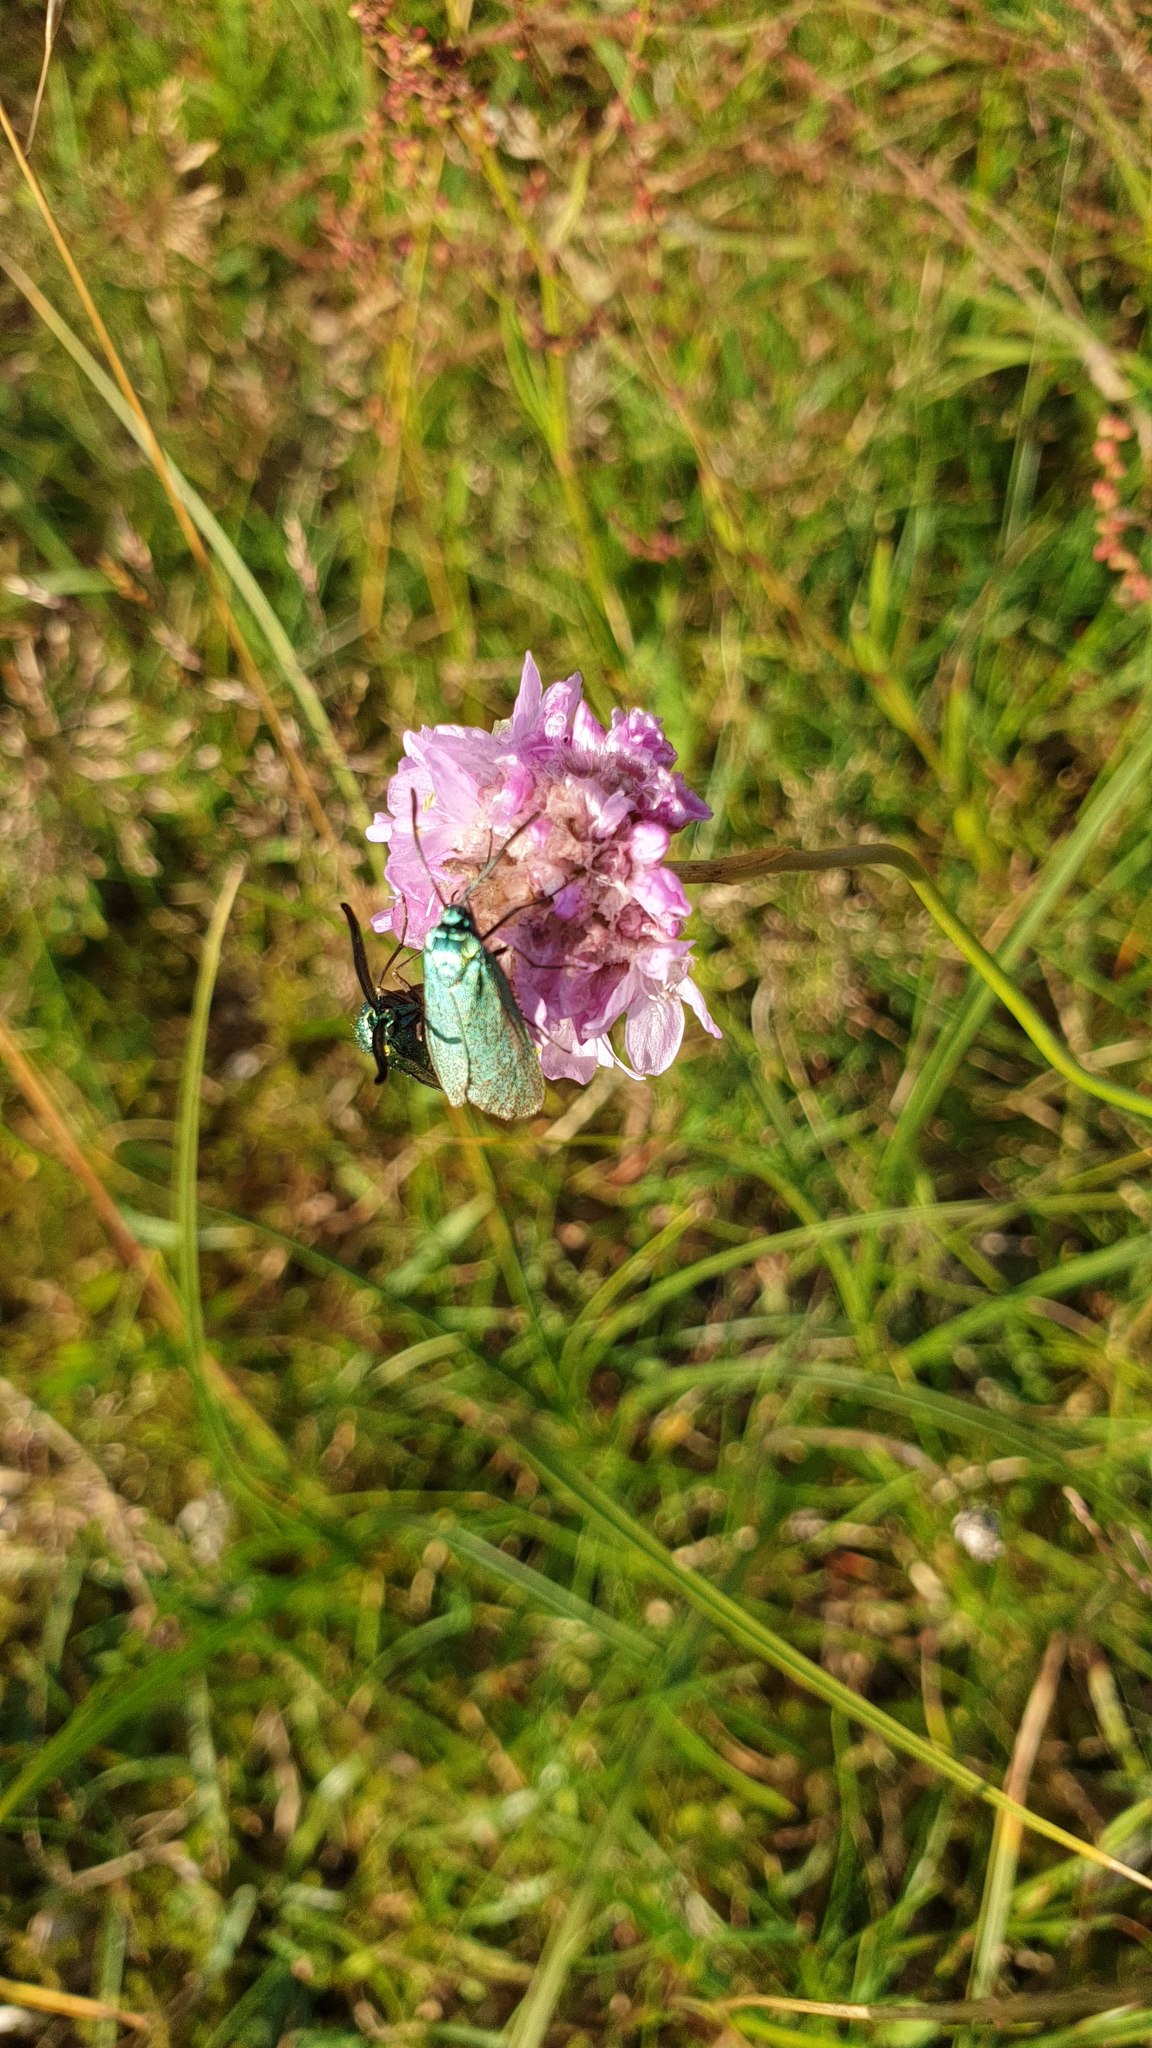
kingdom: Animalia
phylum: Arthropoda
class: Insecta
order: Lepidoptera
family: Zygaenidae
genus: Adscita
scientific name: Adscita statices
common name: Forester
